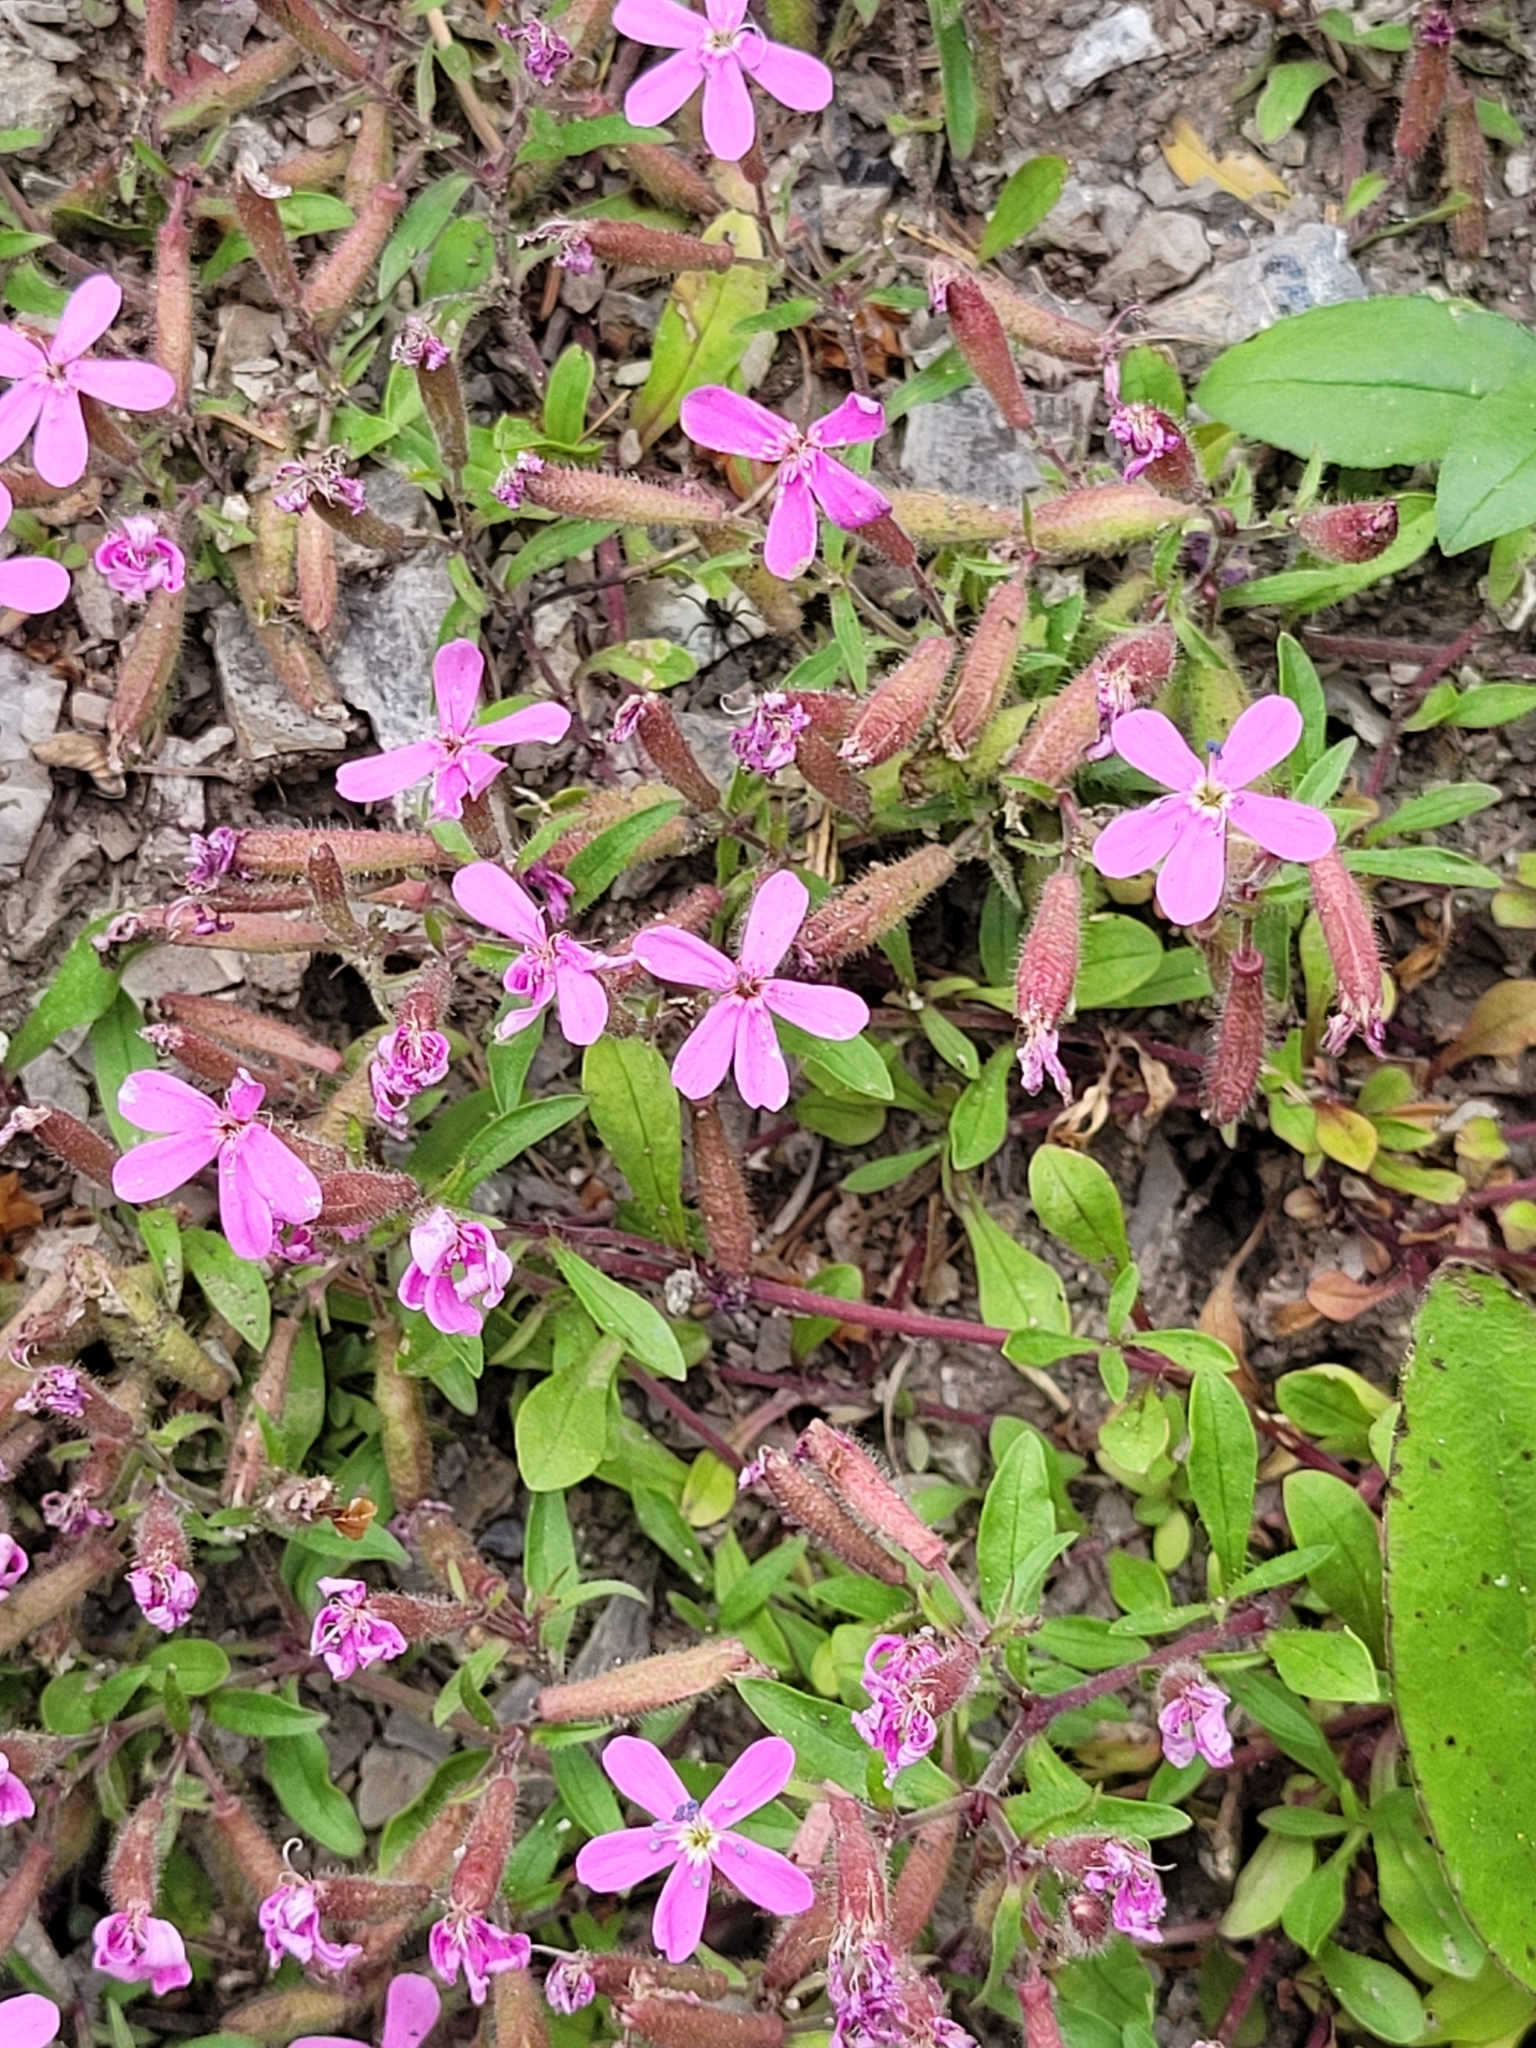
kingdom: Plantae
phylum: Tracheophyta
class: Magnoliopsida
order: Caryophyllales
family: Caryophyllaceae
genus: Saponaria
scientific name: Saponaria ocymoides
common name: Rock soapwort
